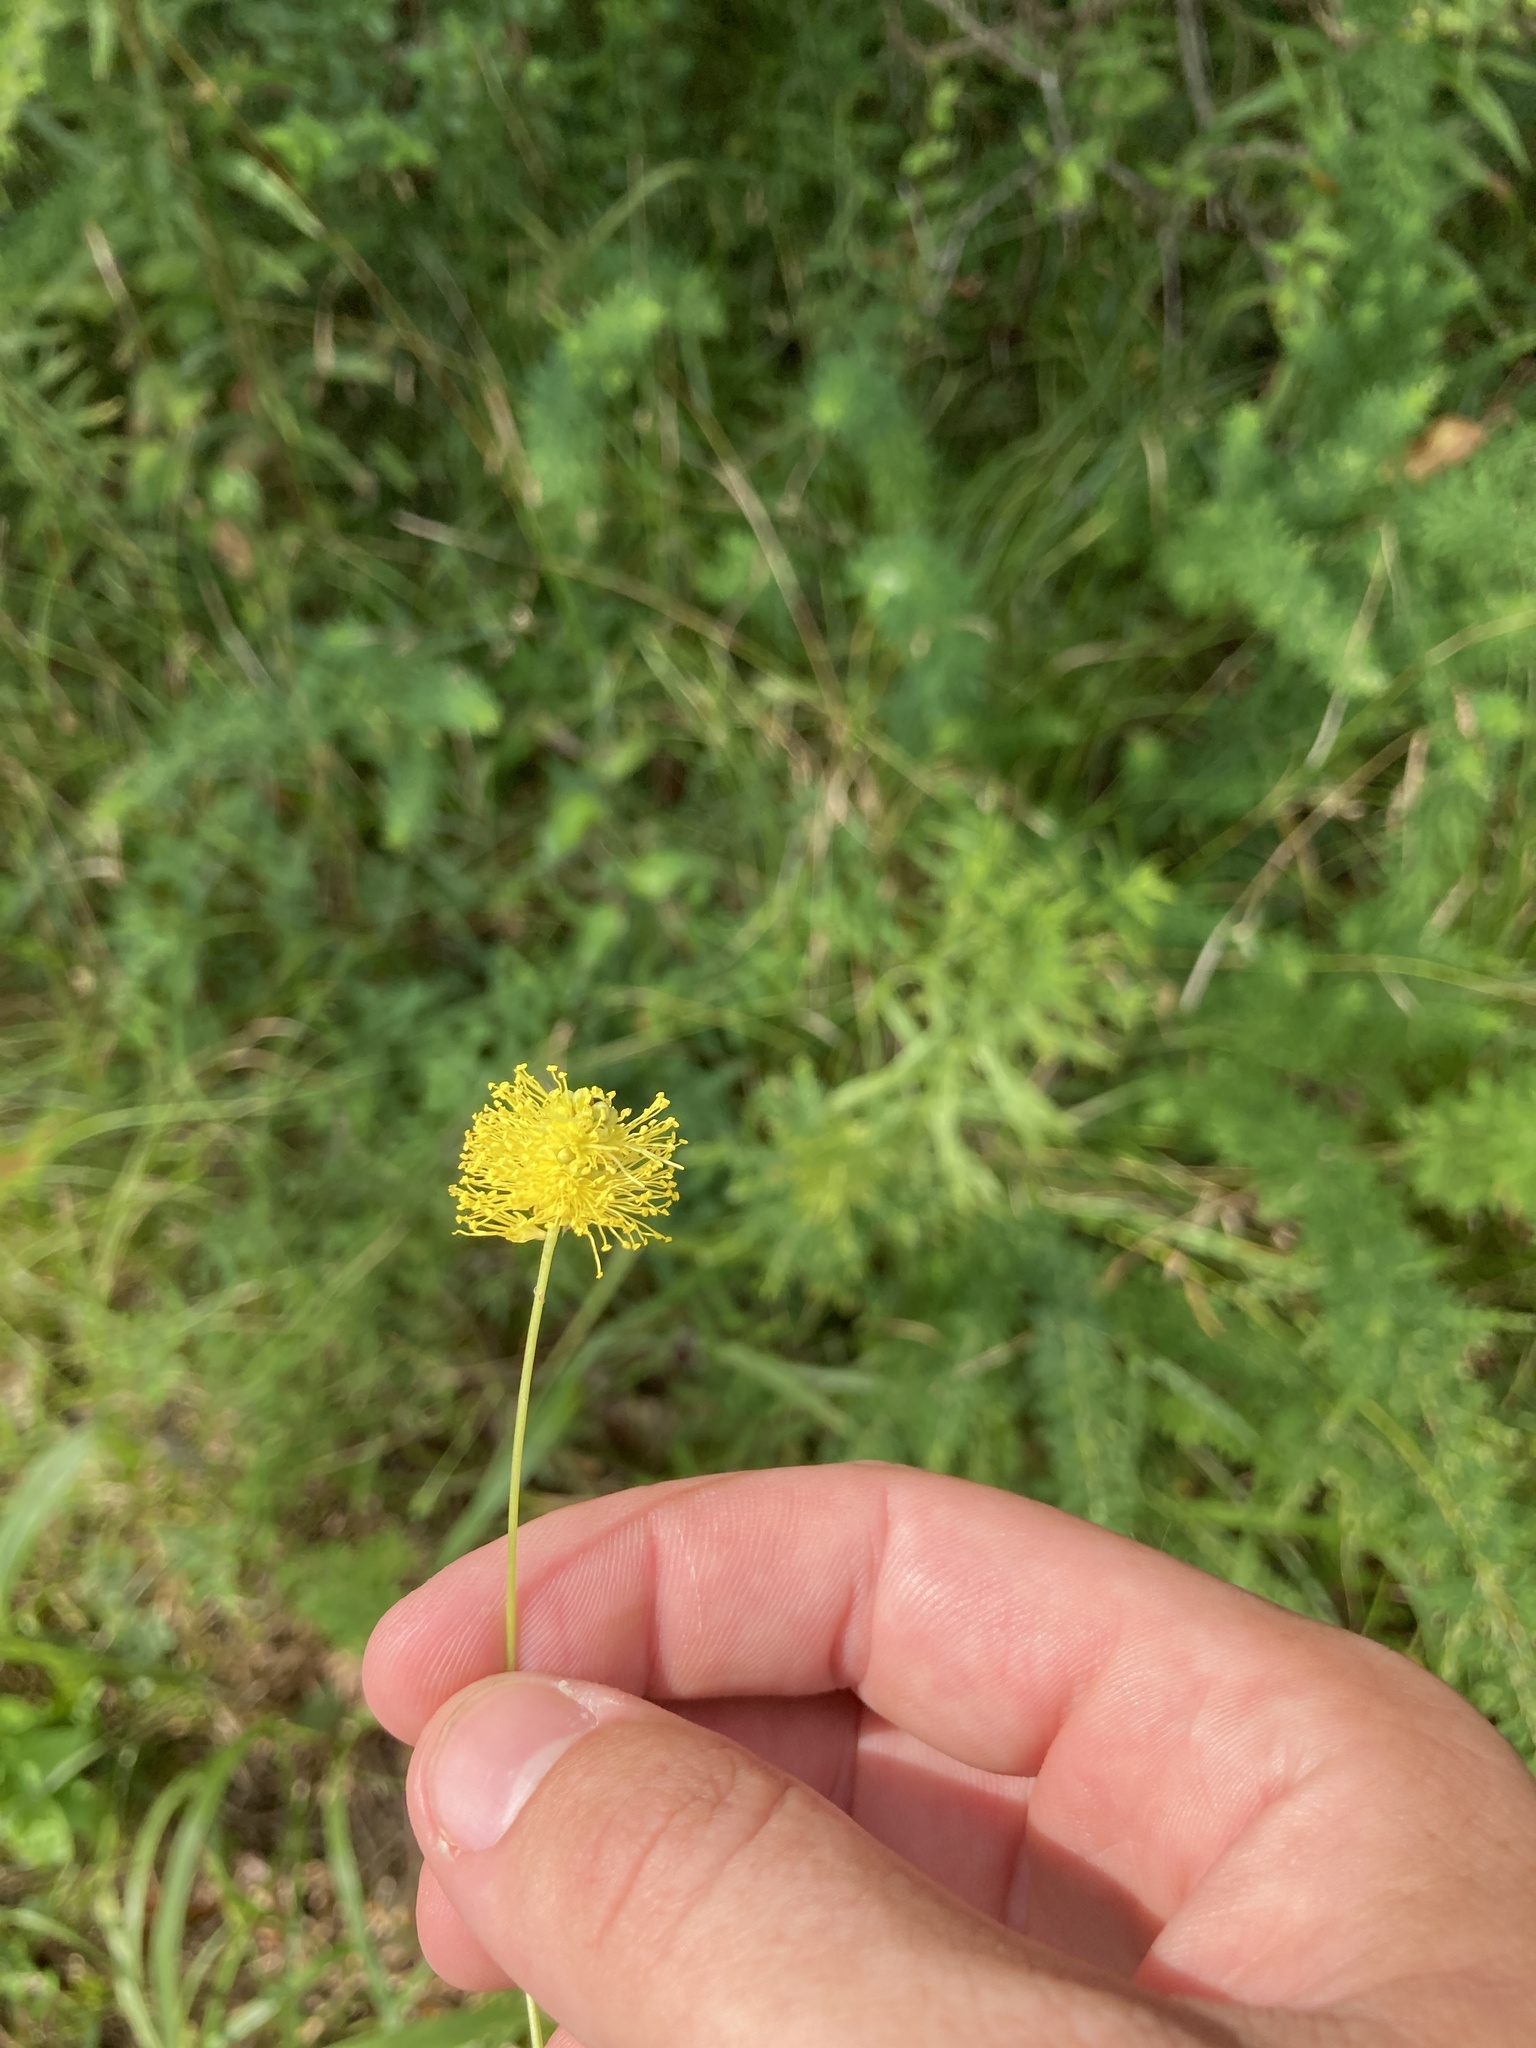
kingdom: Plantae
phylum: Tracheophyta
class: Magnoliopsida
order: Fabales
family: Fabaceae
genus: Neptunia
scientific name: Neptunia lutea
